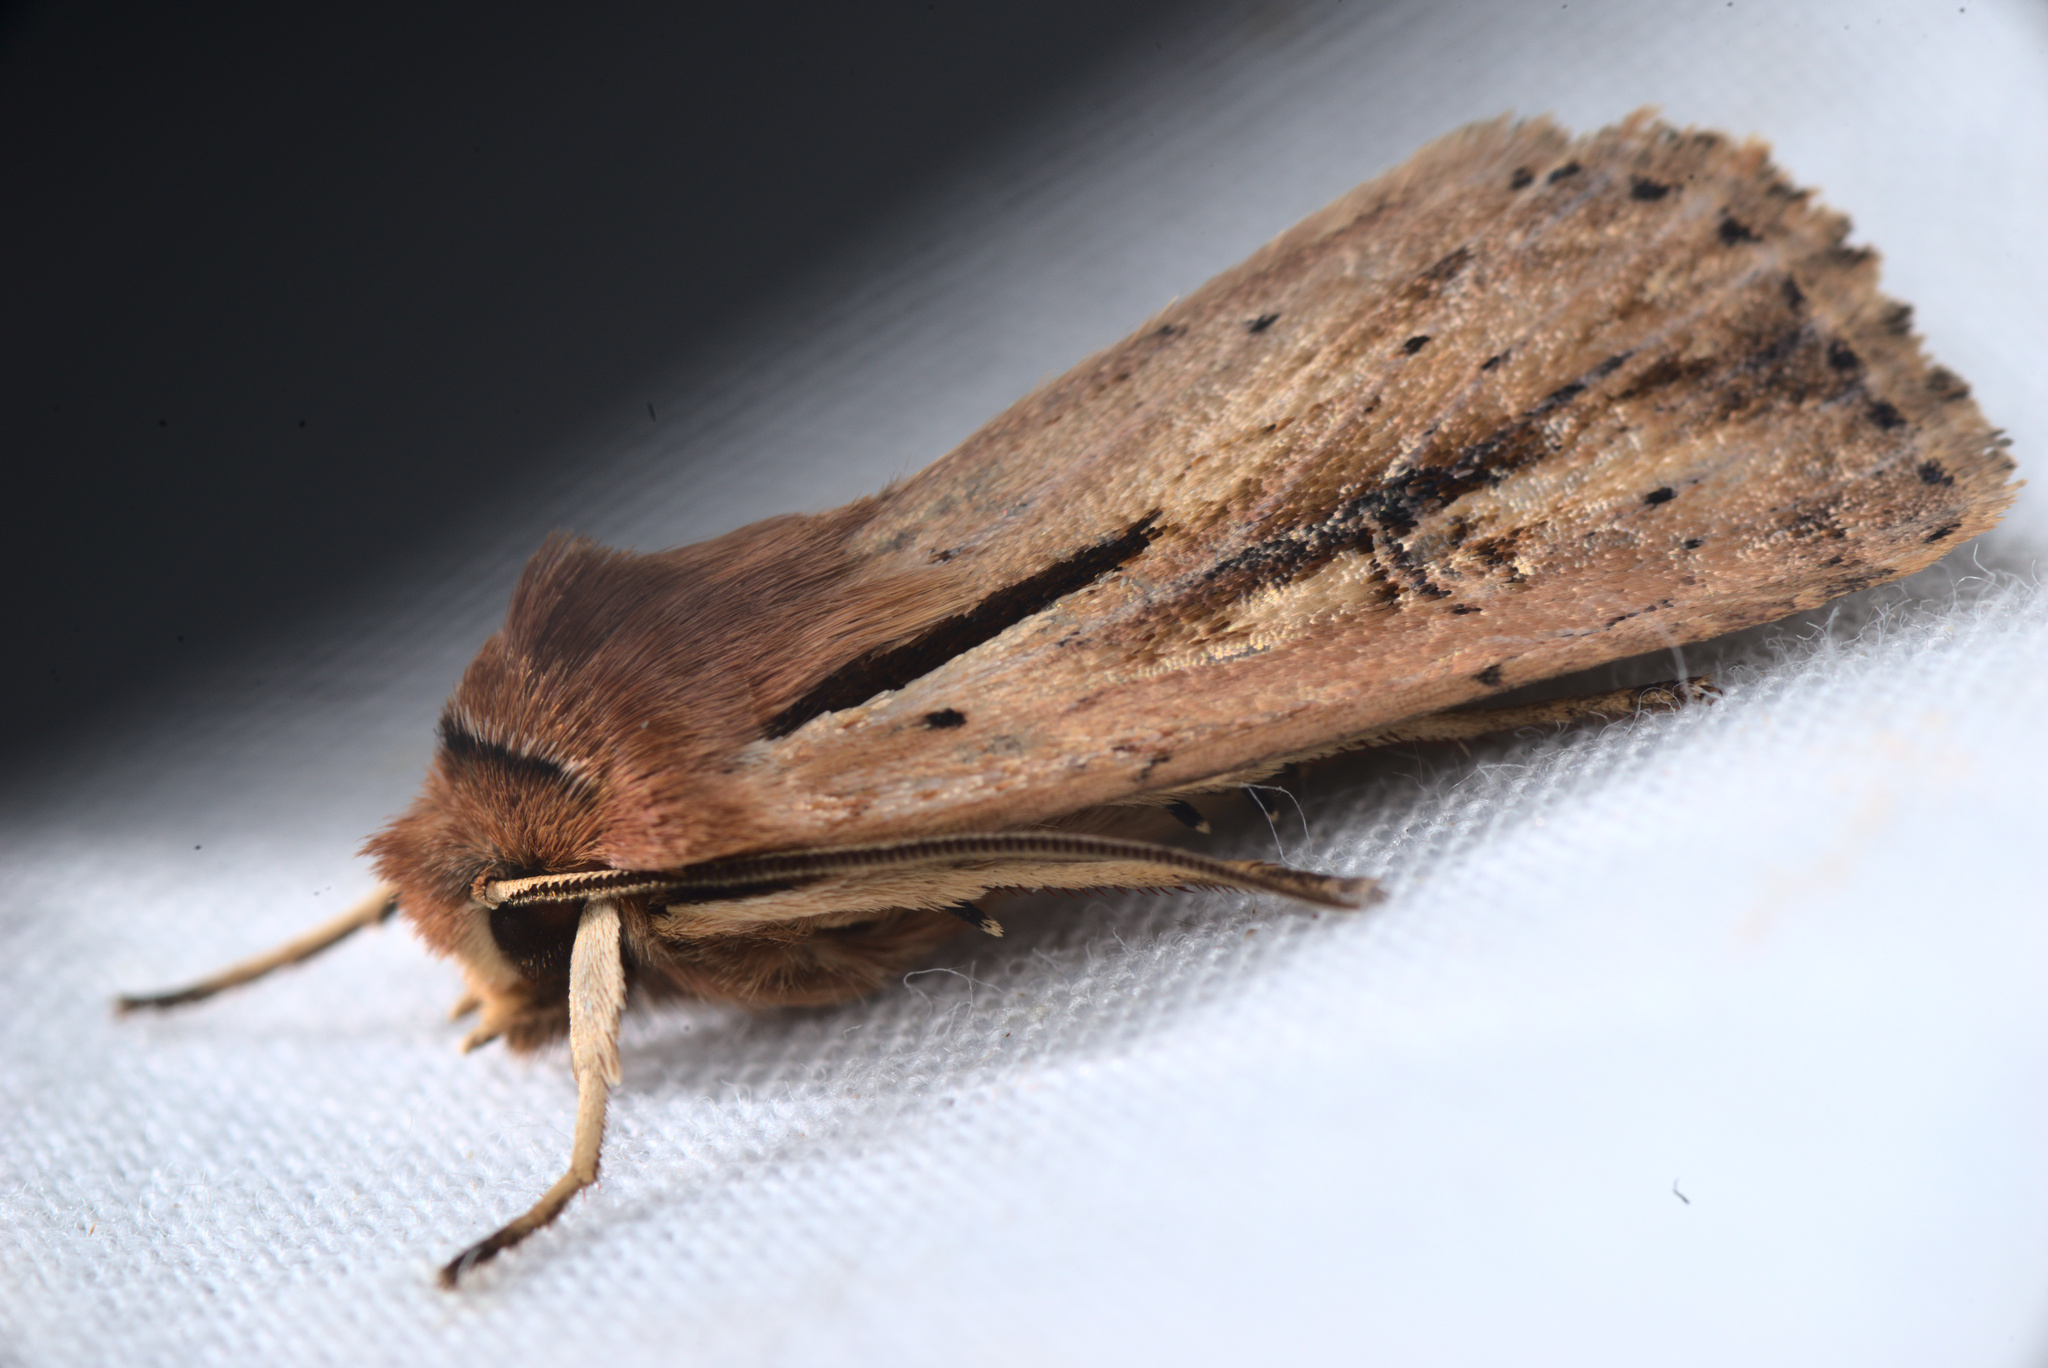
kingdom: Animalia
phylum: Arthropoda
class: Insecta
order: Lepidoptera
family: Noctuidae
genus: Ichneutica
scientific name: Ichneutica atristriga
